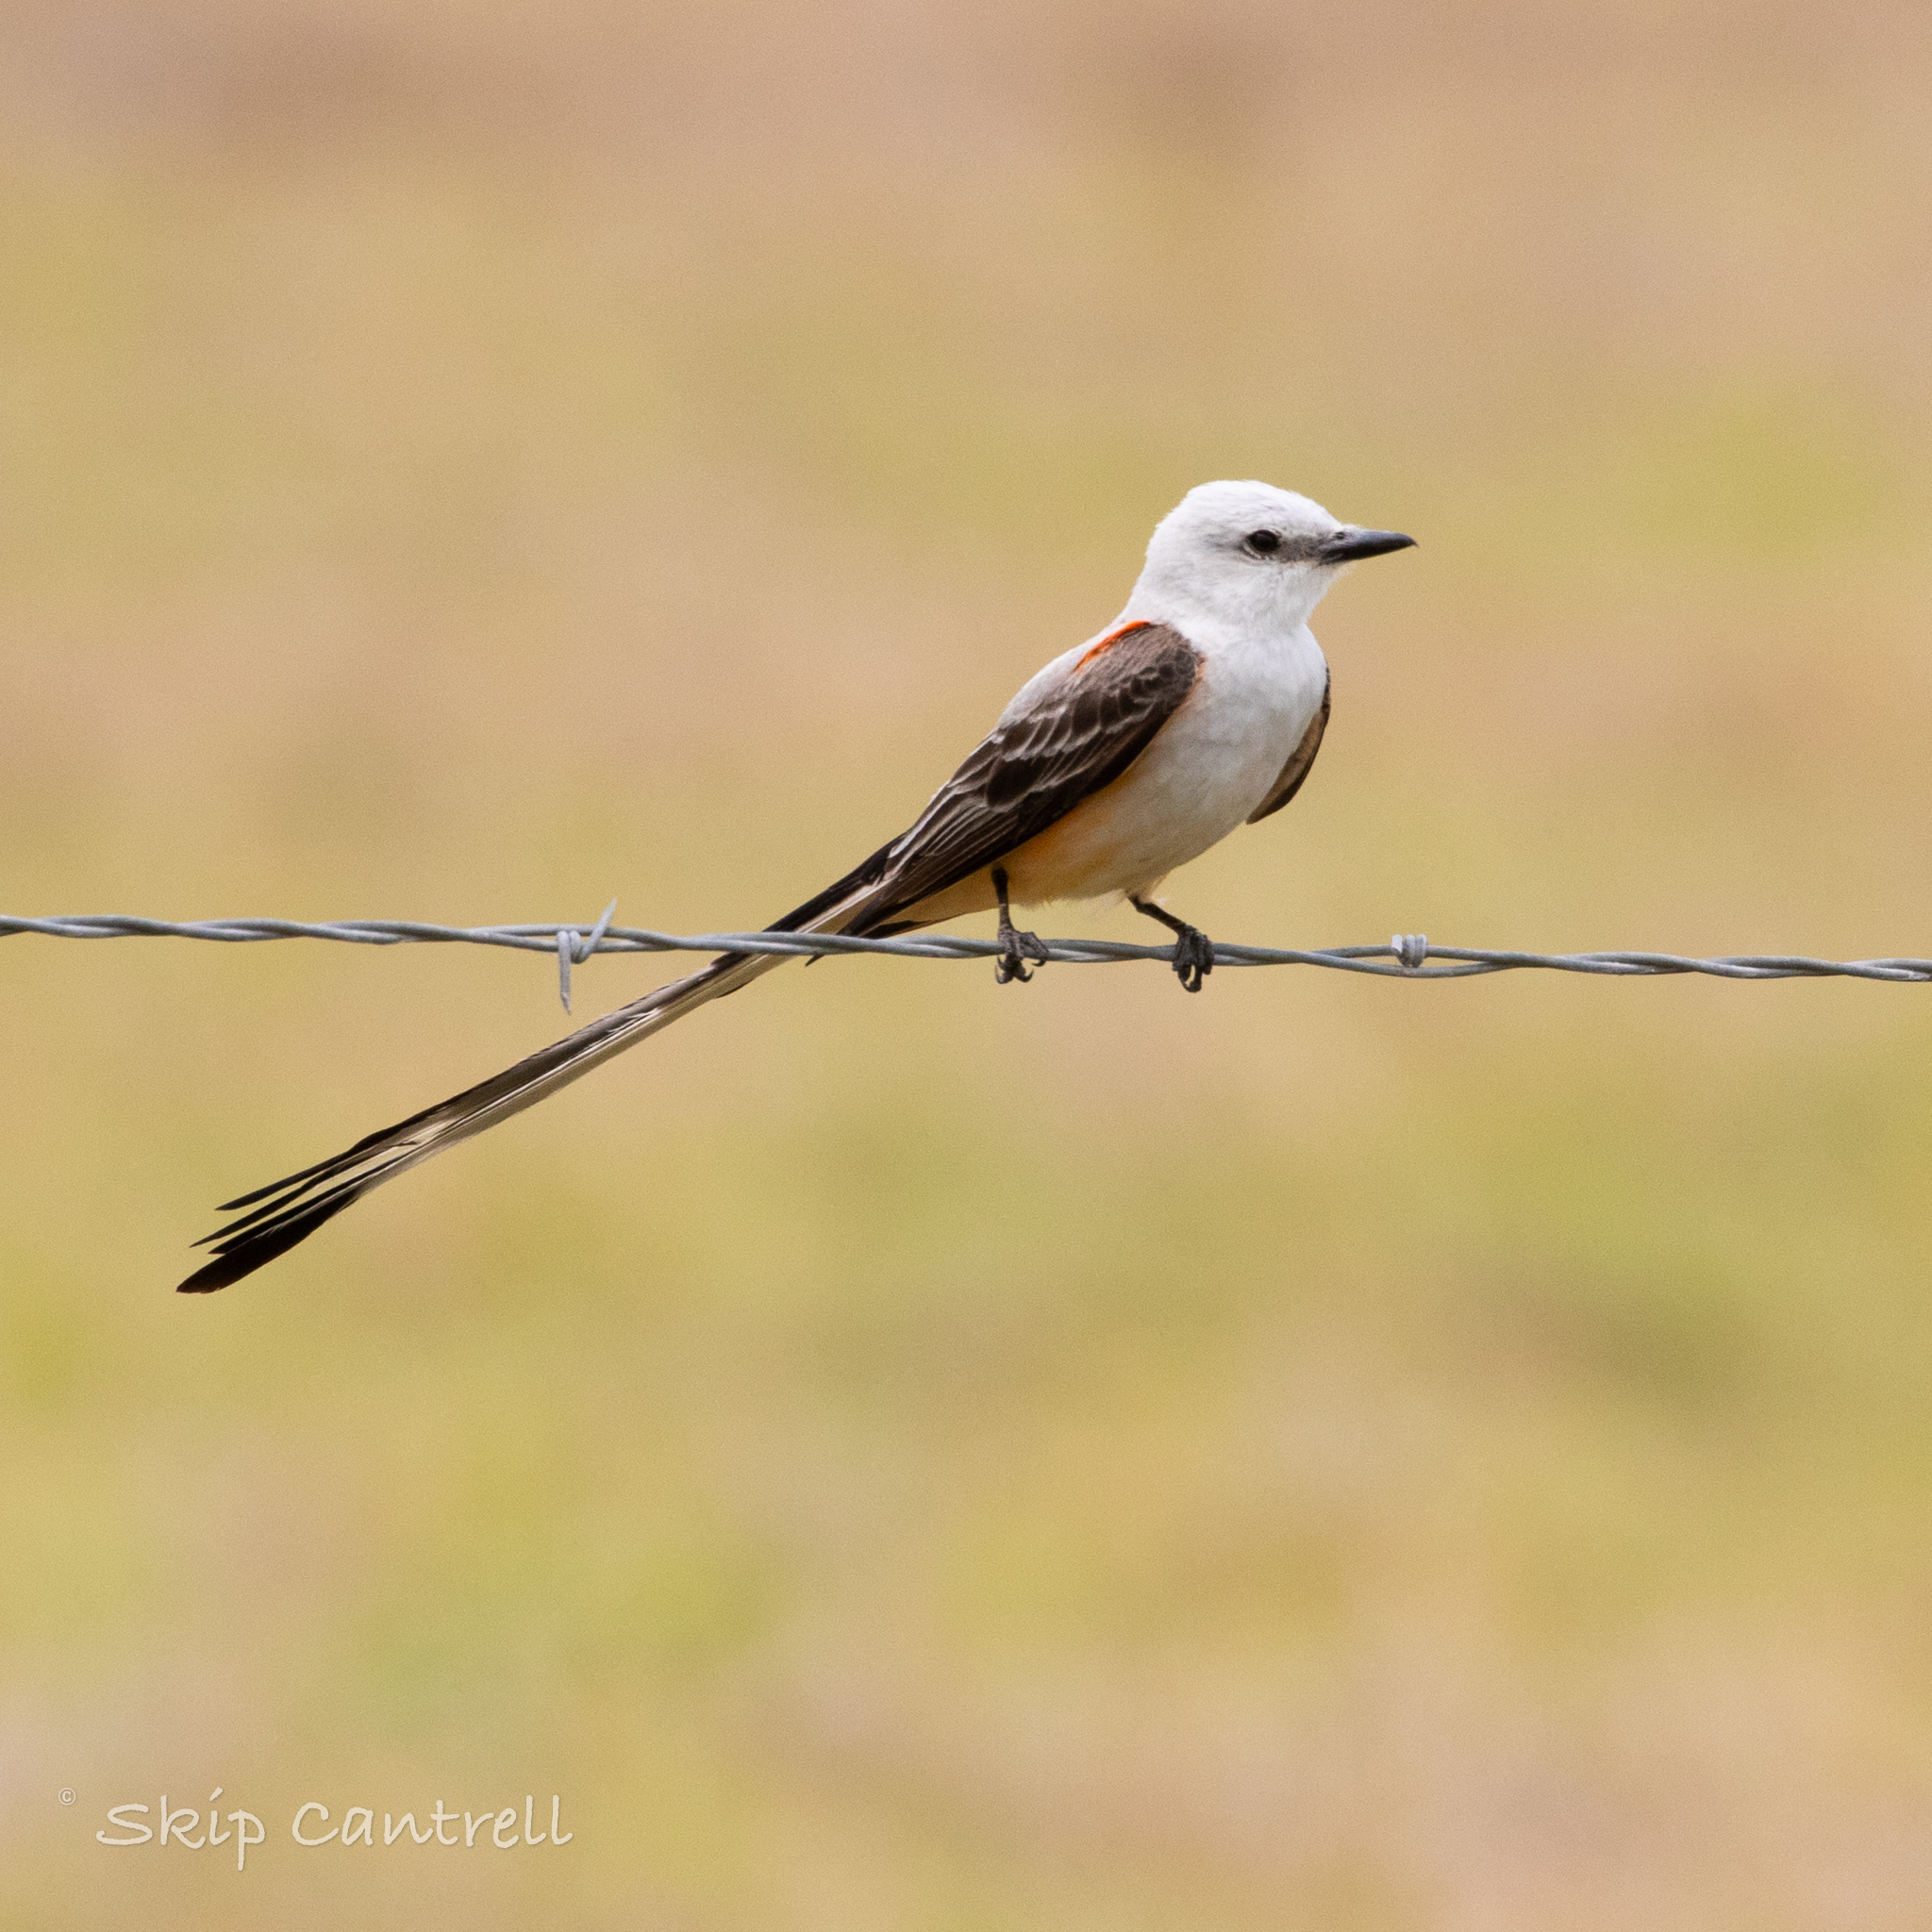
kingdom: Animalia
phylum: Chordata
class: Aves
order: Passeriformes
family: Tyrannidae
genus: Tyrannus
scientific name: Tyrannus forficatus
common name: Scissor-tailed flycatcher
